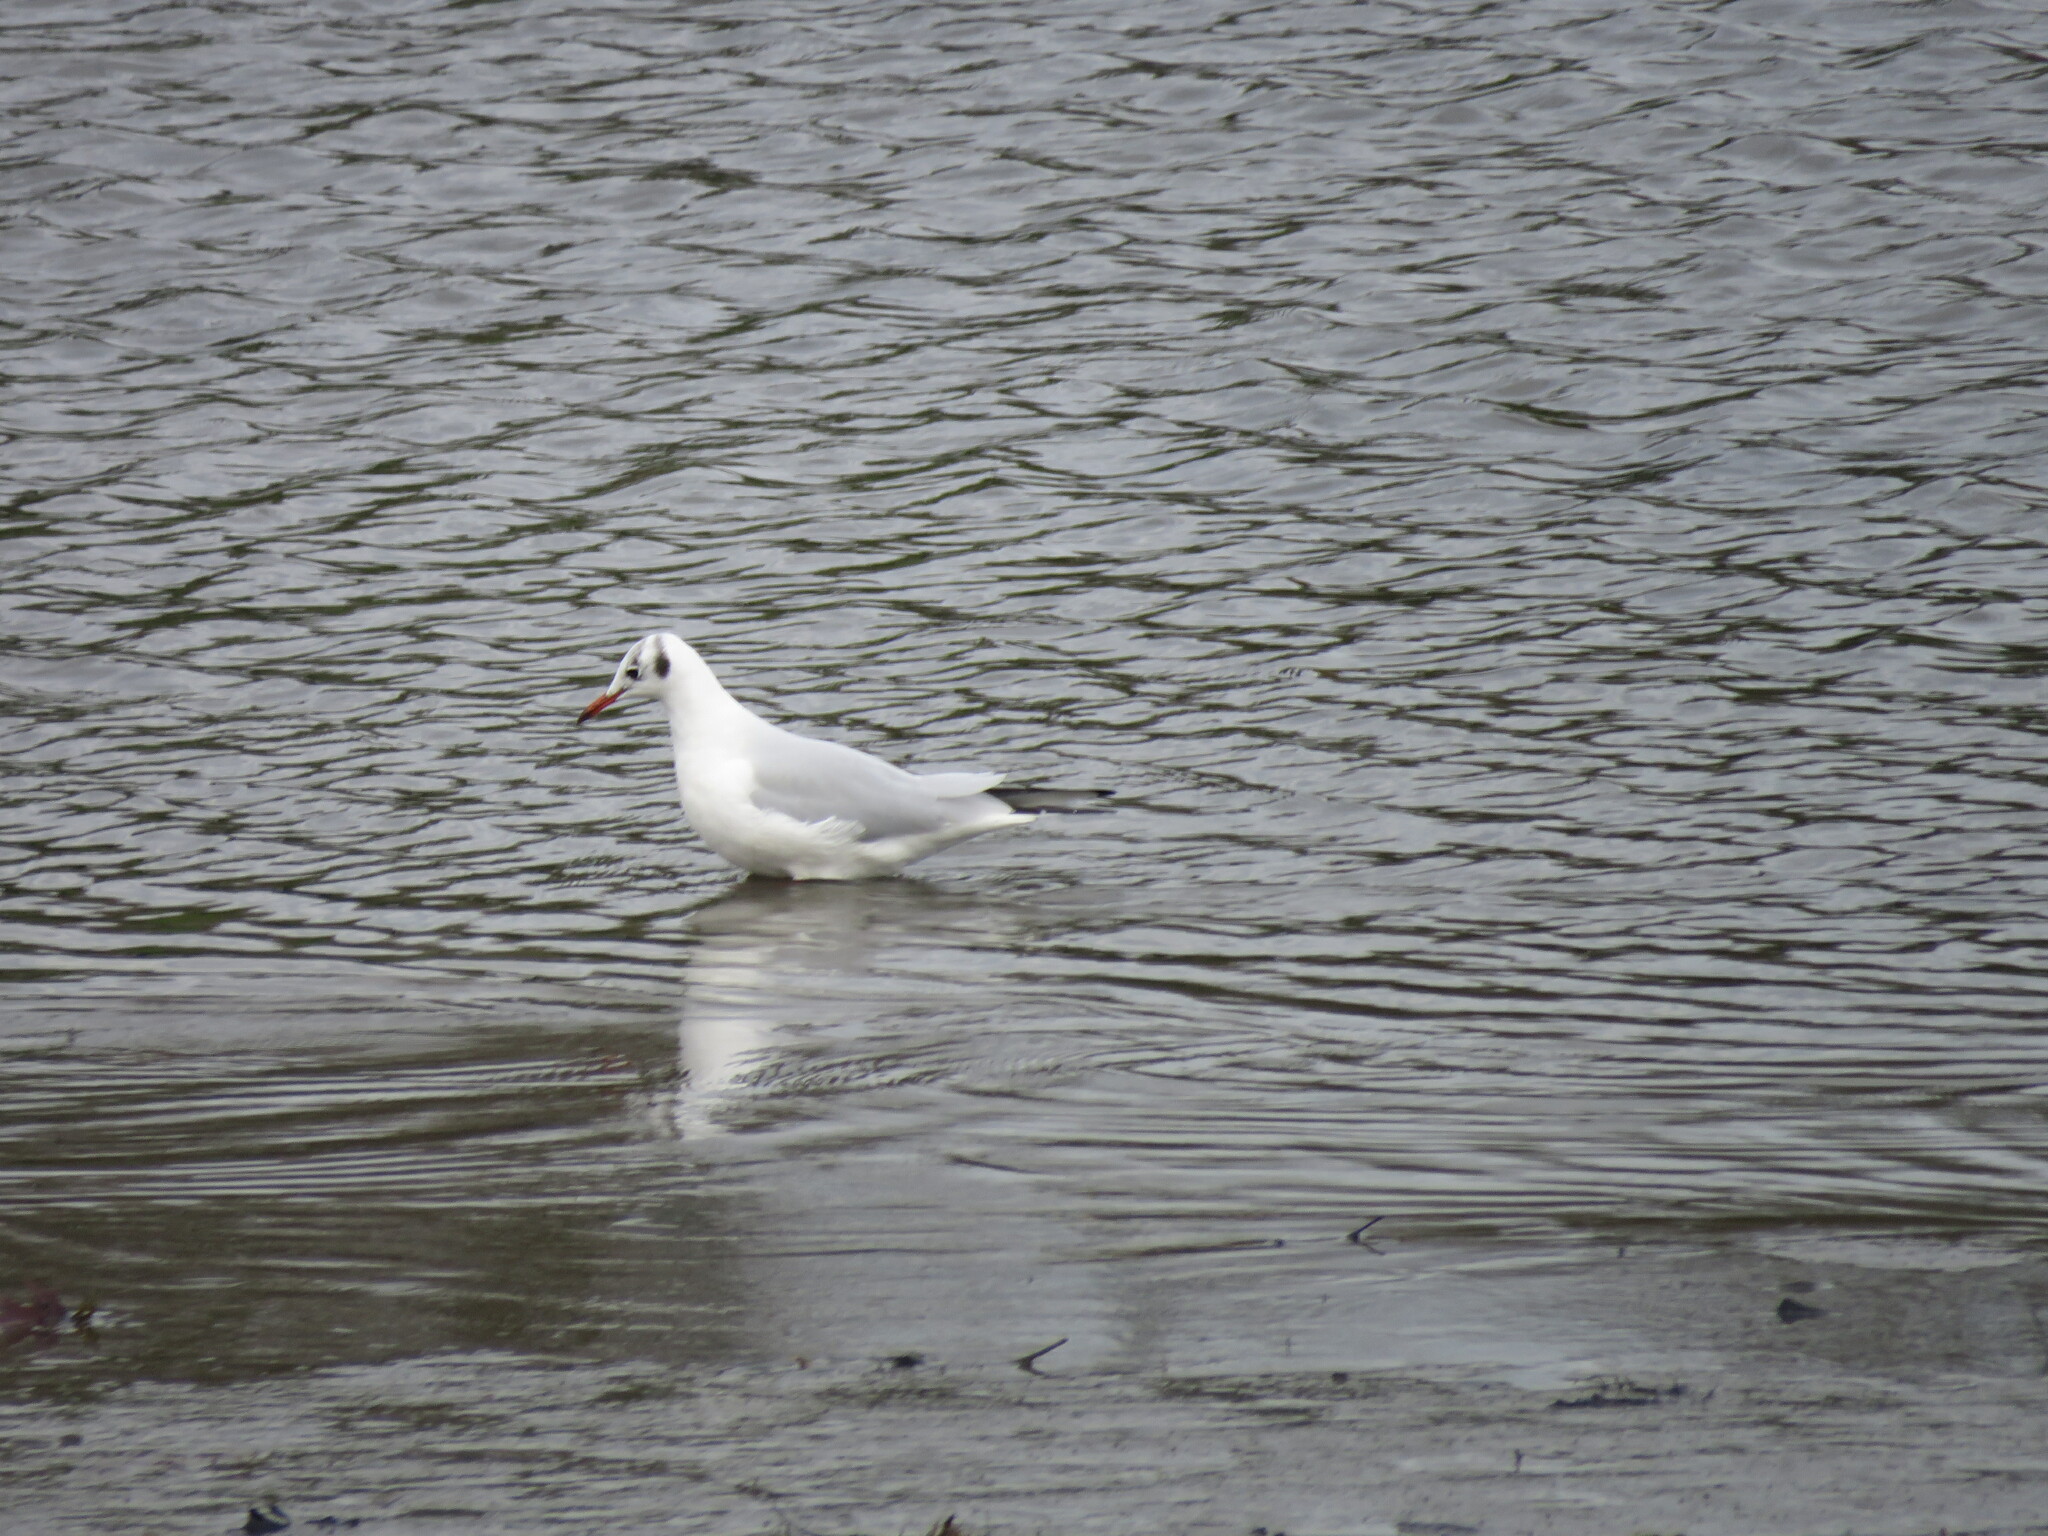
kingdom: Animalia
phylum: Chordata
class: Aves
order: Charadriiformes
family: Laridae
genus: Chroicocephalus
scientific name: Chroicocephalus ridibundus
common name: Black-headed gull
